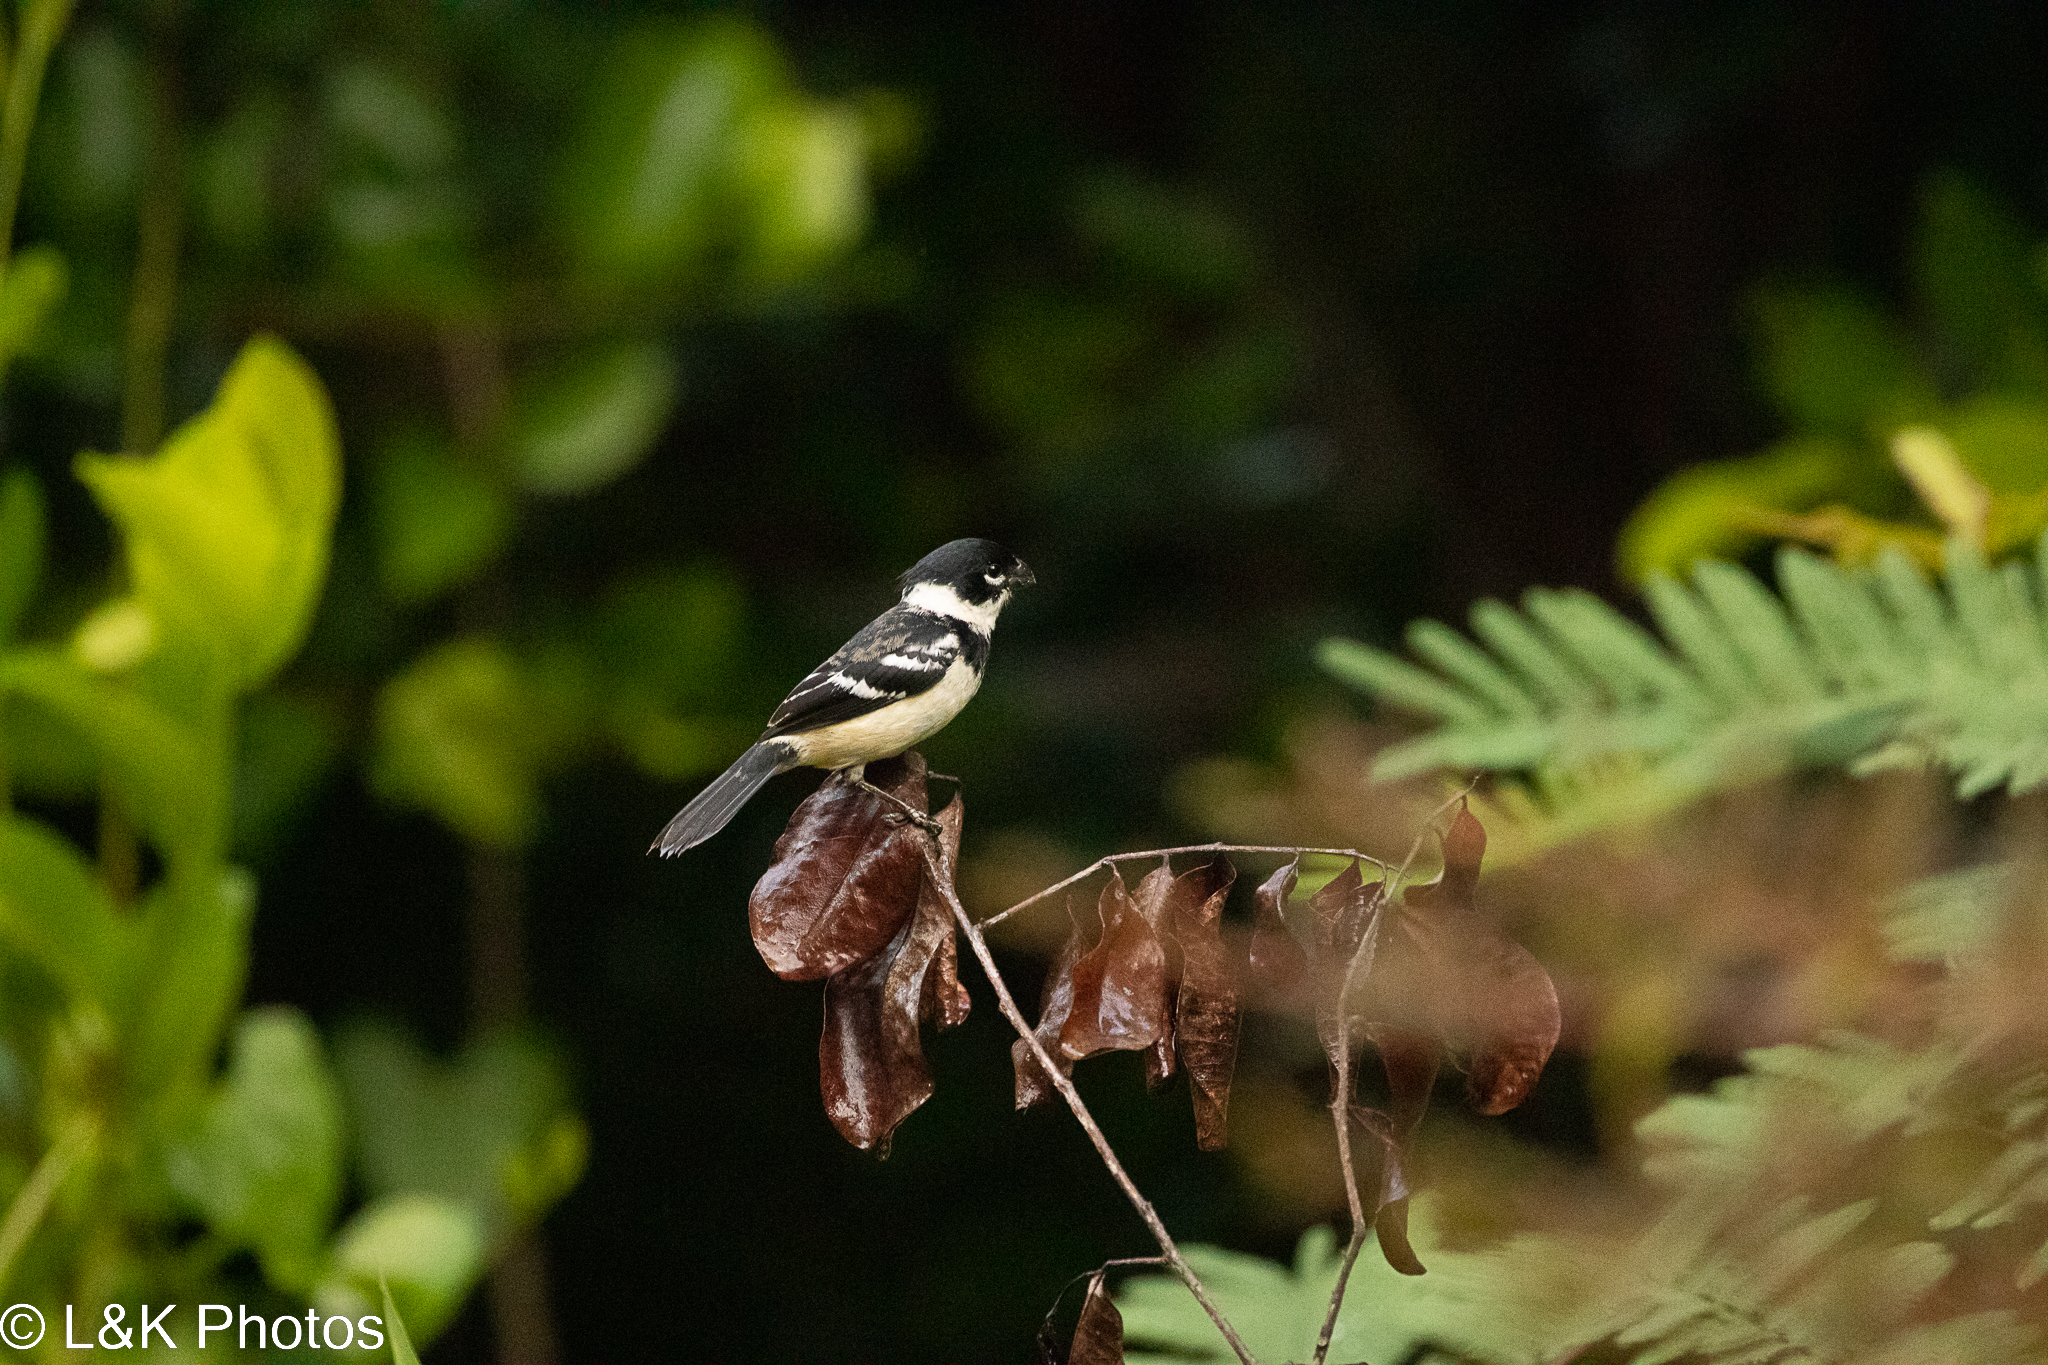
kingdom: Animalia
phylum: Chordata
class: Aves
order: Passeriformes
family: Thraupidae
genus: Sporophila
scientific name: Sporophila morelleti
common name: Morelet's seedeater
